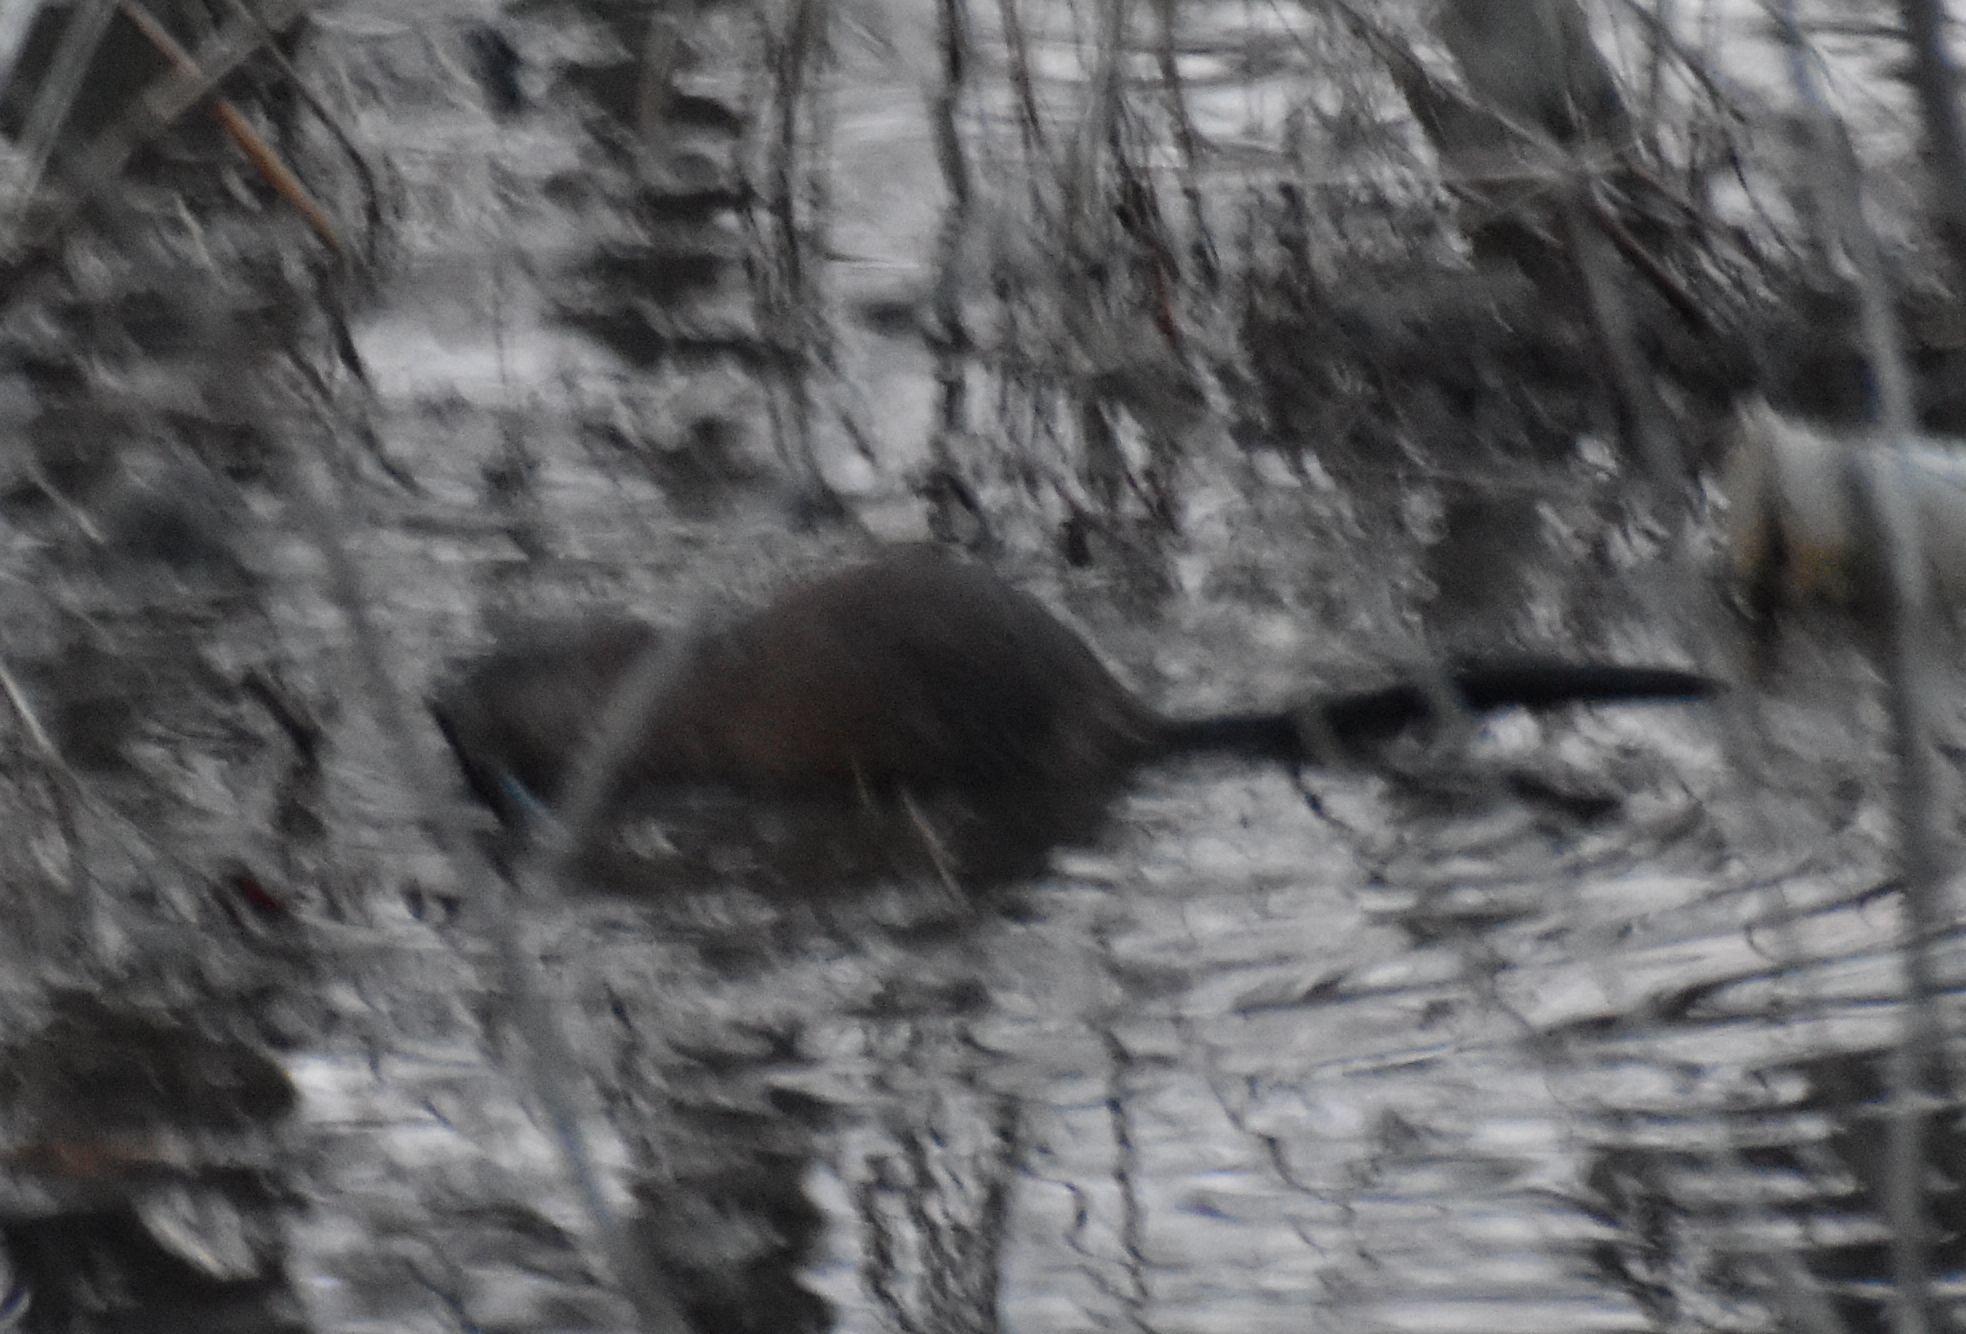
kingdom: Animalia
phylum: Chordata
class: Mammalia
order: Rodentia
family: Castoridae
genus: Castor
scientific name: Castor canadensis
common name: American beaver
